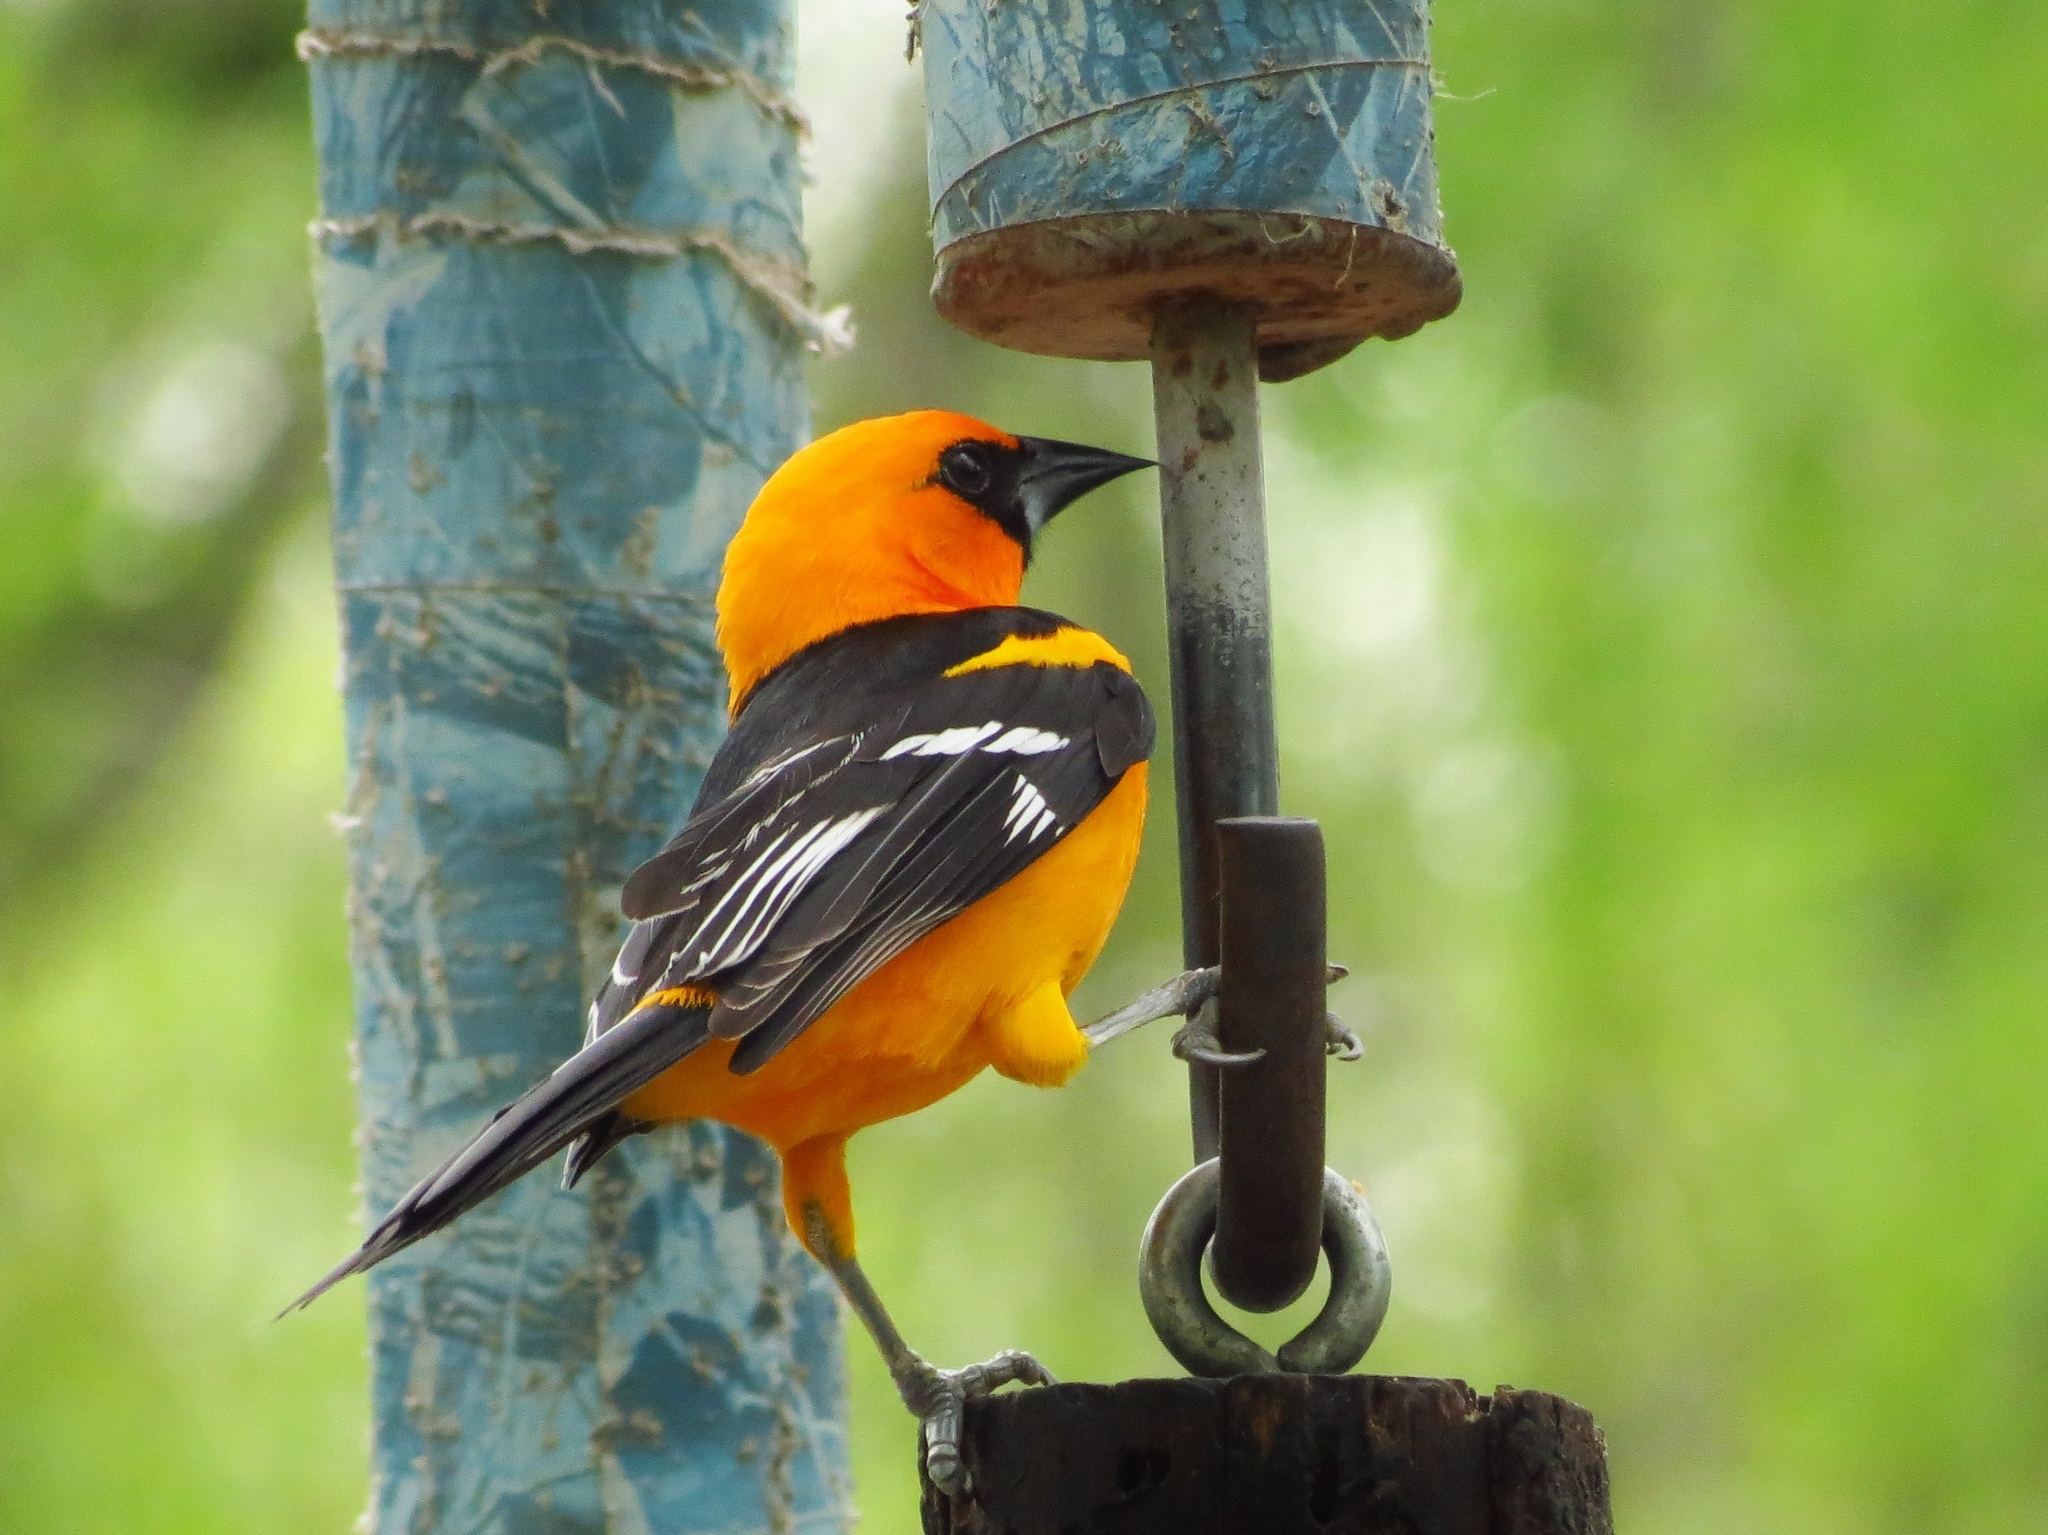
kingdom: Animalia
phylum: Chordata
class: Aves
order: Passeriformes
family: Icteridae
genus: Icterus
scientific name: Icterus gularis
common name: Altamira oriole
